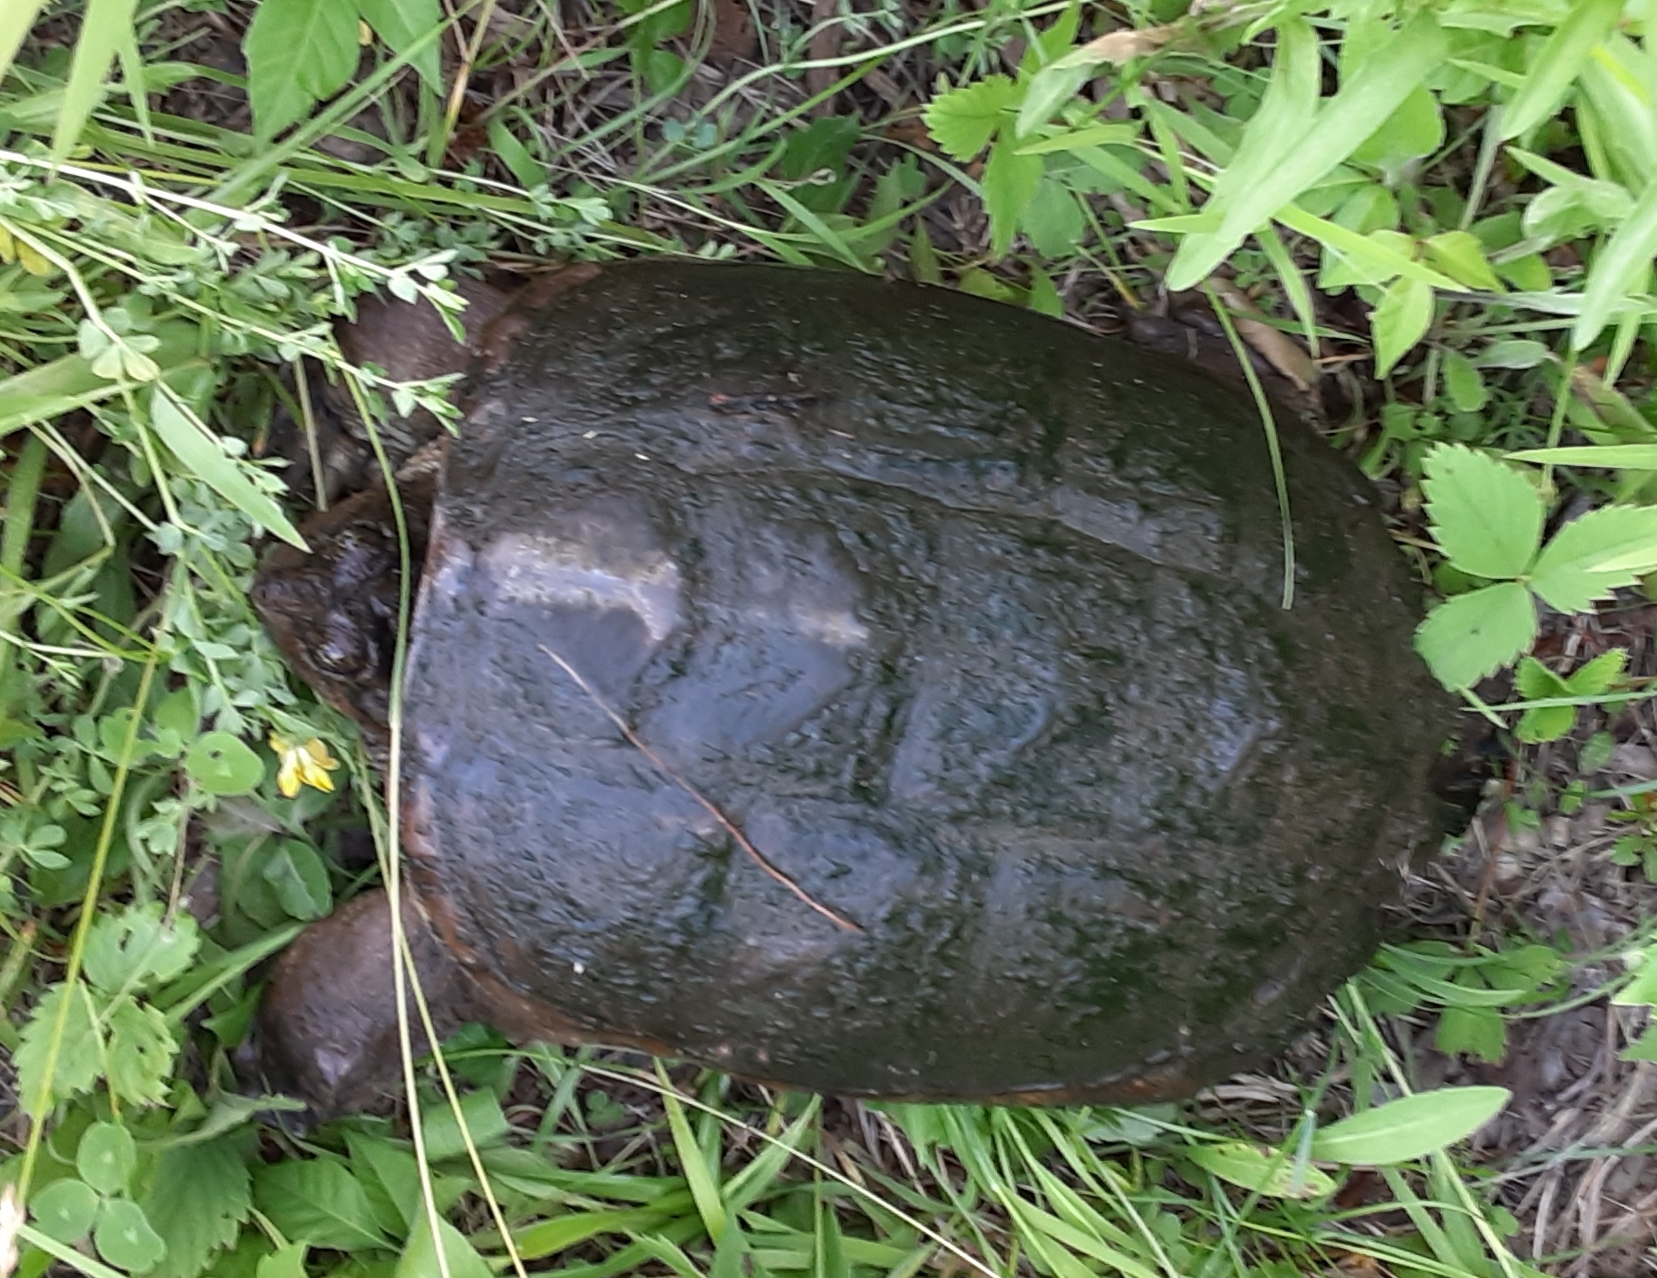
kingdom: Animalia
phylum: Chordata
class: Testudines
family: Chelydridae
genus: Chelydra
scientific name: Chelydra serpentina
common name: Common snapping turtle
